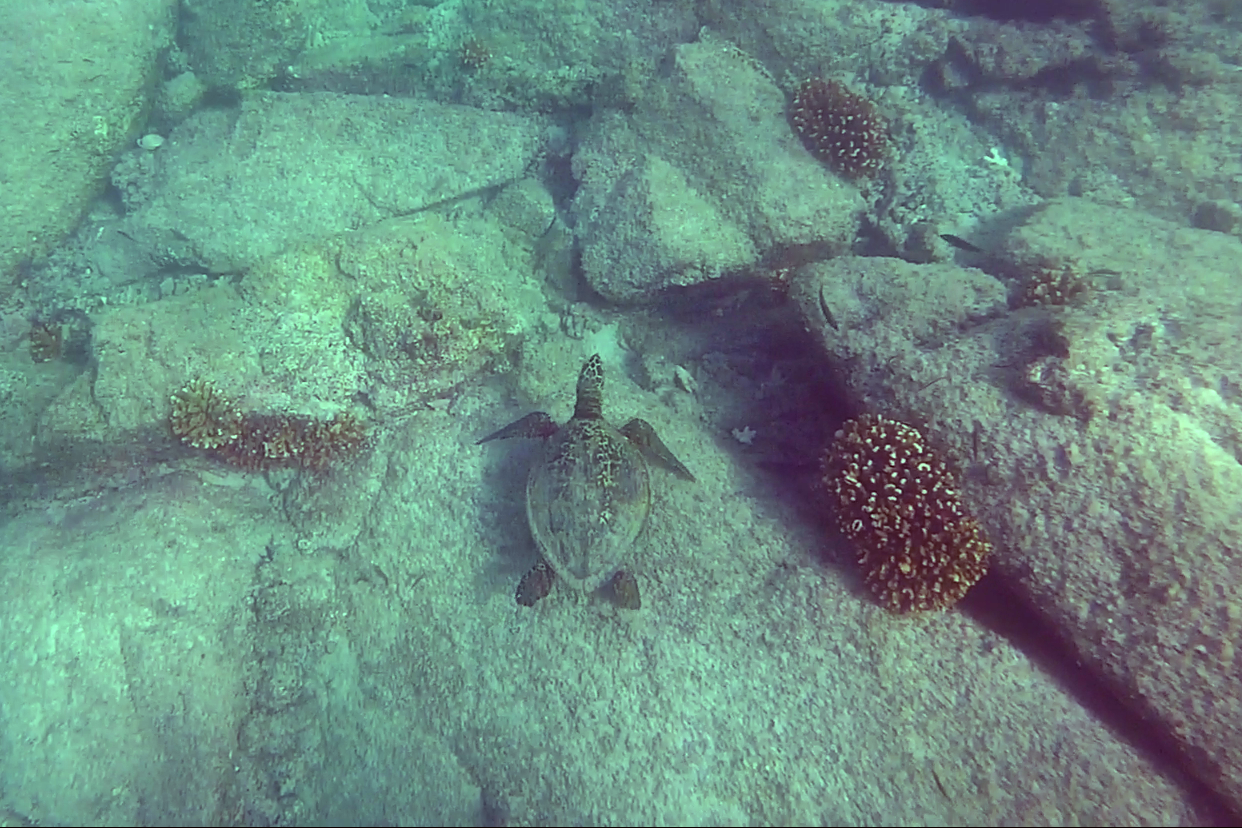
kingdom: Animalia
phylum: Chordata
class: Testudines
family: Cheloniidae
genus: Eretmochelys
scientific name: Eretmochelys imbricata
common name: Hawksbill turtle
